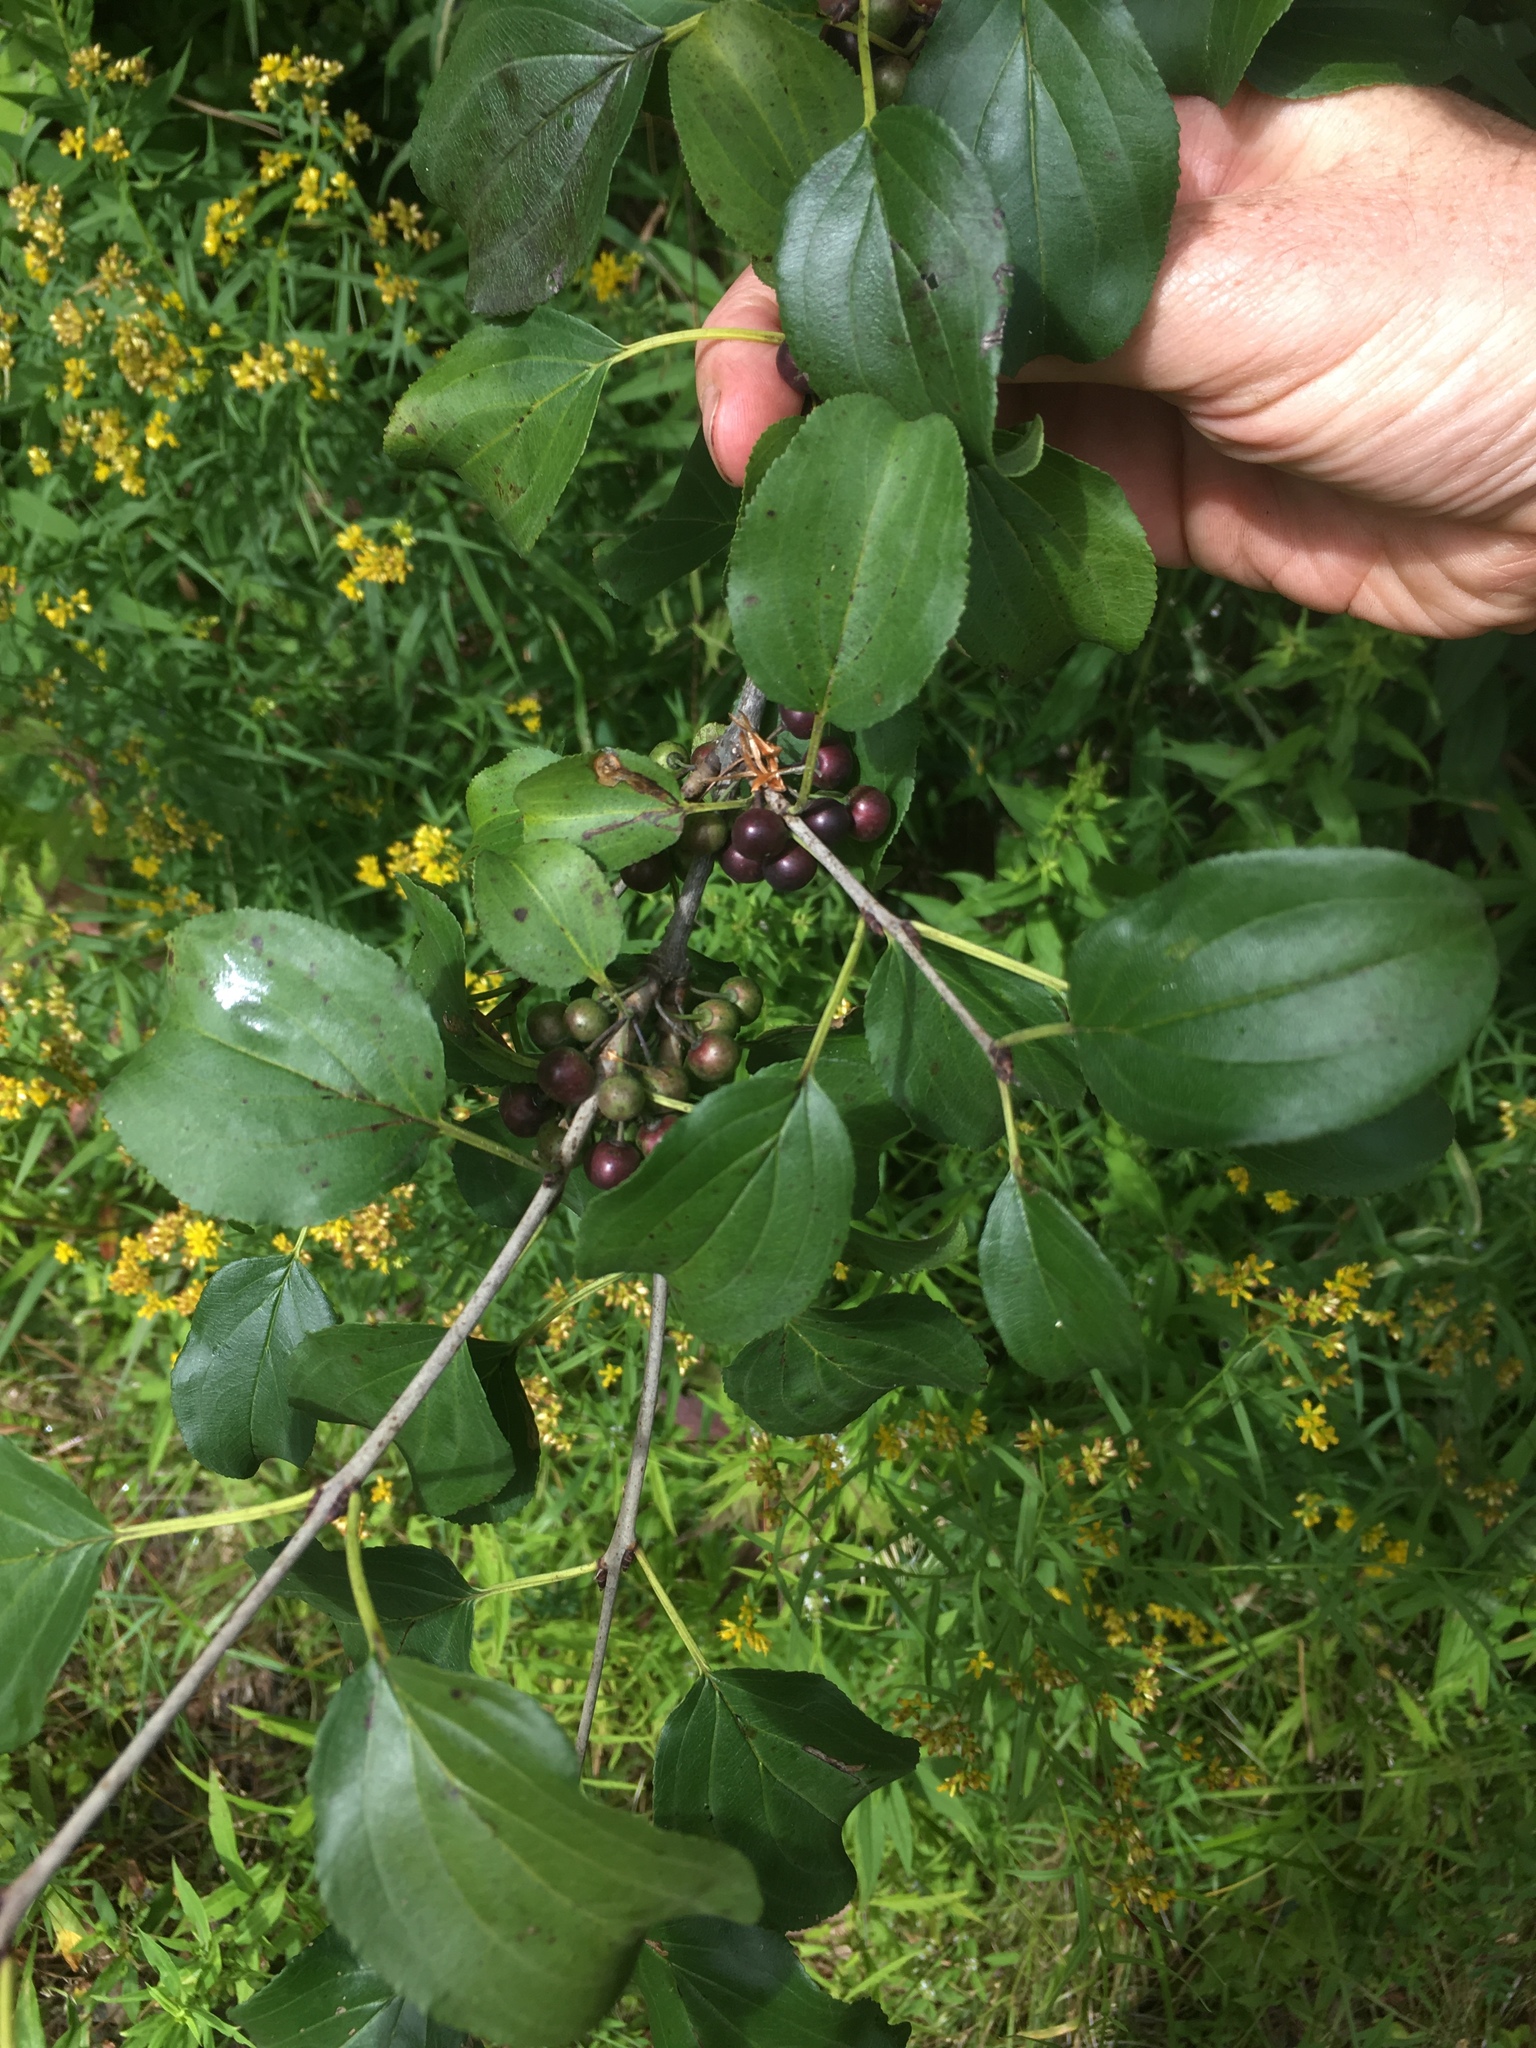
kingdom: Plantae
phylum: Tracheophyta
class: Magnoliopsida
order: Rosales
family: Rhamnaceae
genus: Rhamnus
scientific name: Rhamnus cathartica
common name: Common buckthorn
